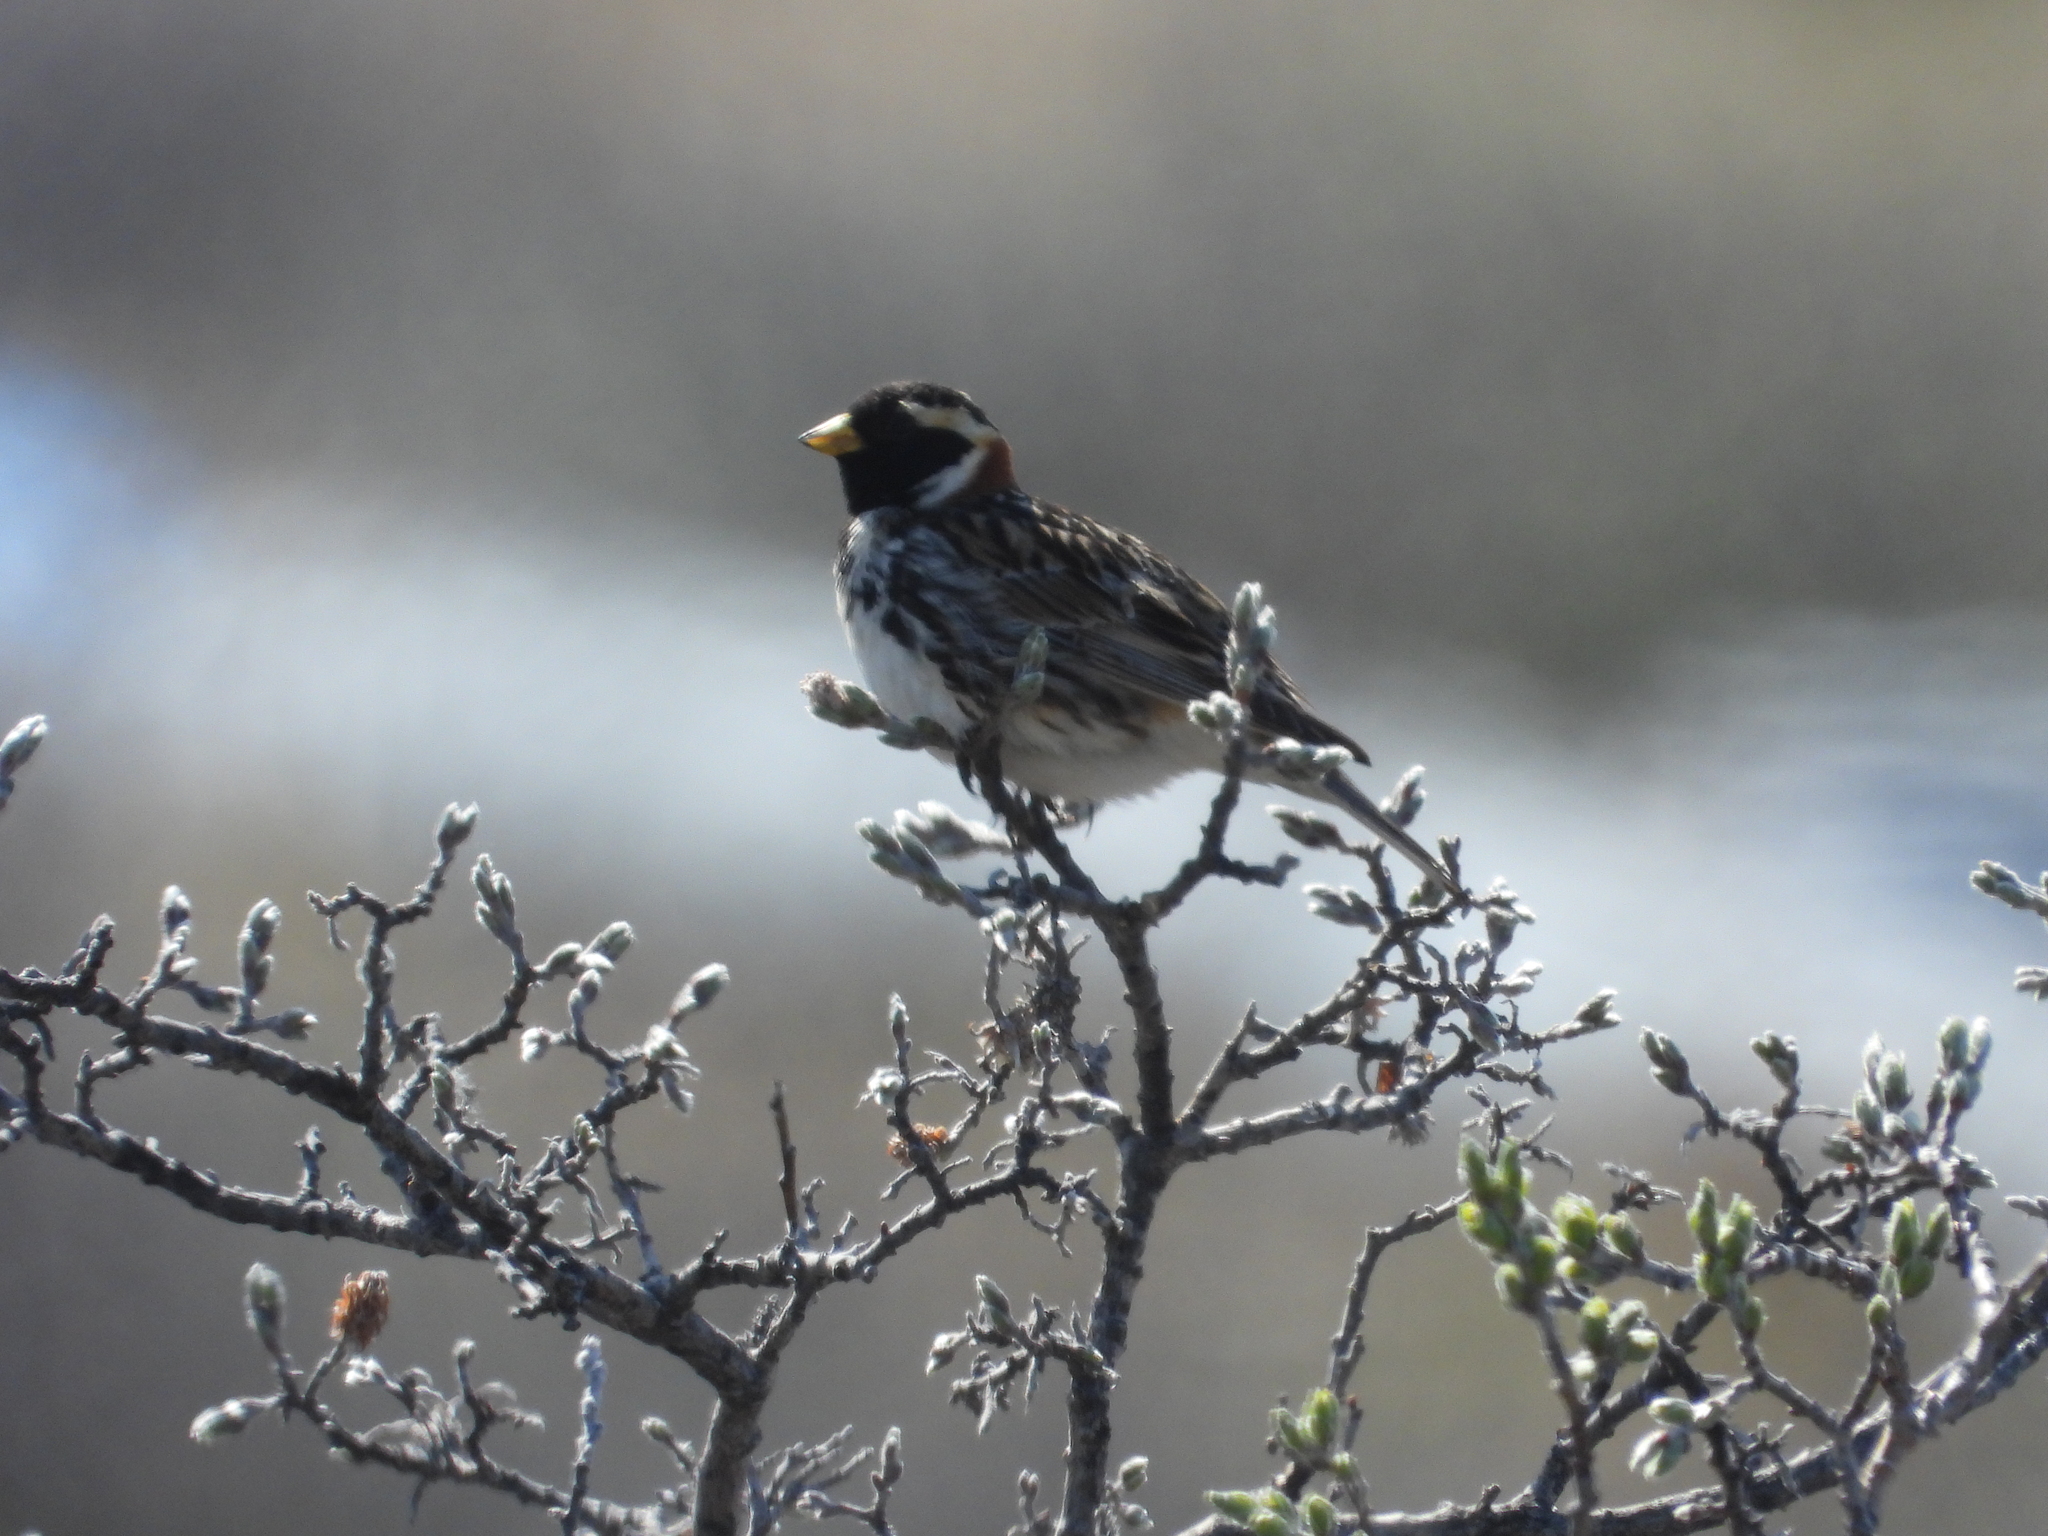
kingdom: Animalia
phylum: Chordata
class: Aves
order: Passeriformes
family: Calcariidae
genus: Calcarius
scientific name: Calcarius lapponicus
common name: Lapland longspur
